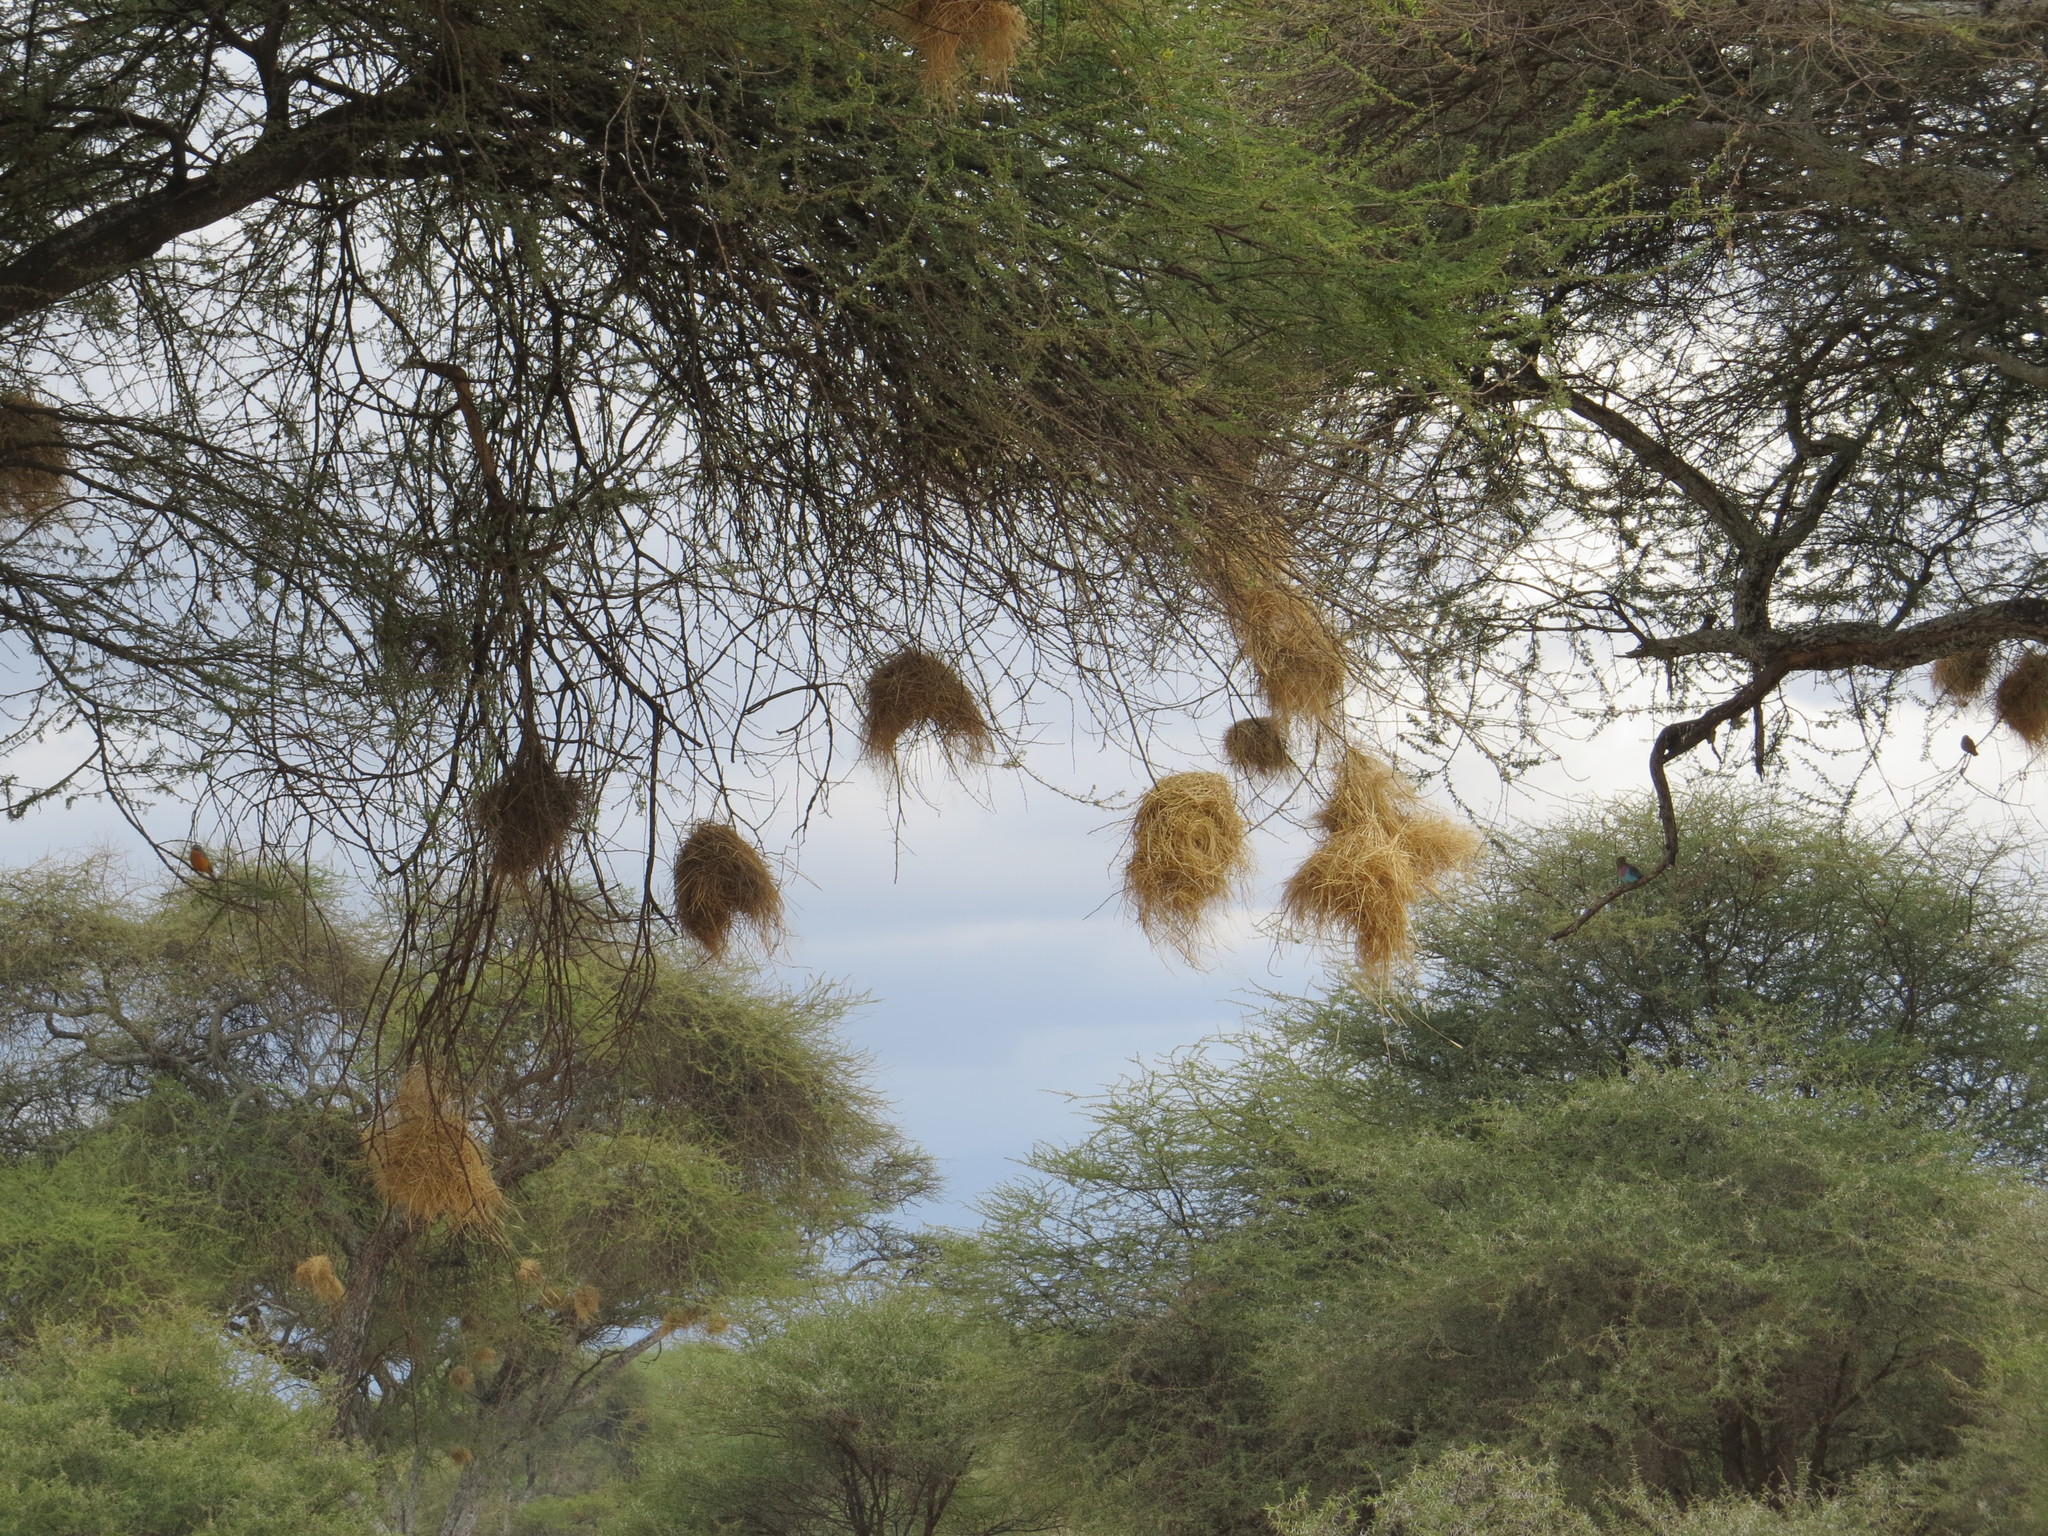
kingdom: Animalia
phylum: Chordata
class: Aves
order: Passeriformes
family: Passeridae
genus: Histurgops
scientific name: Histurgops ruficauda
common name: Rufous-tailed weaver
